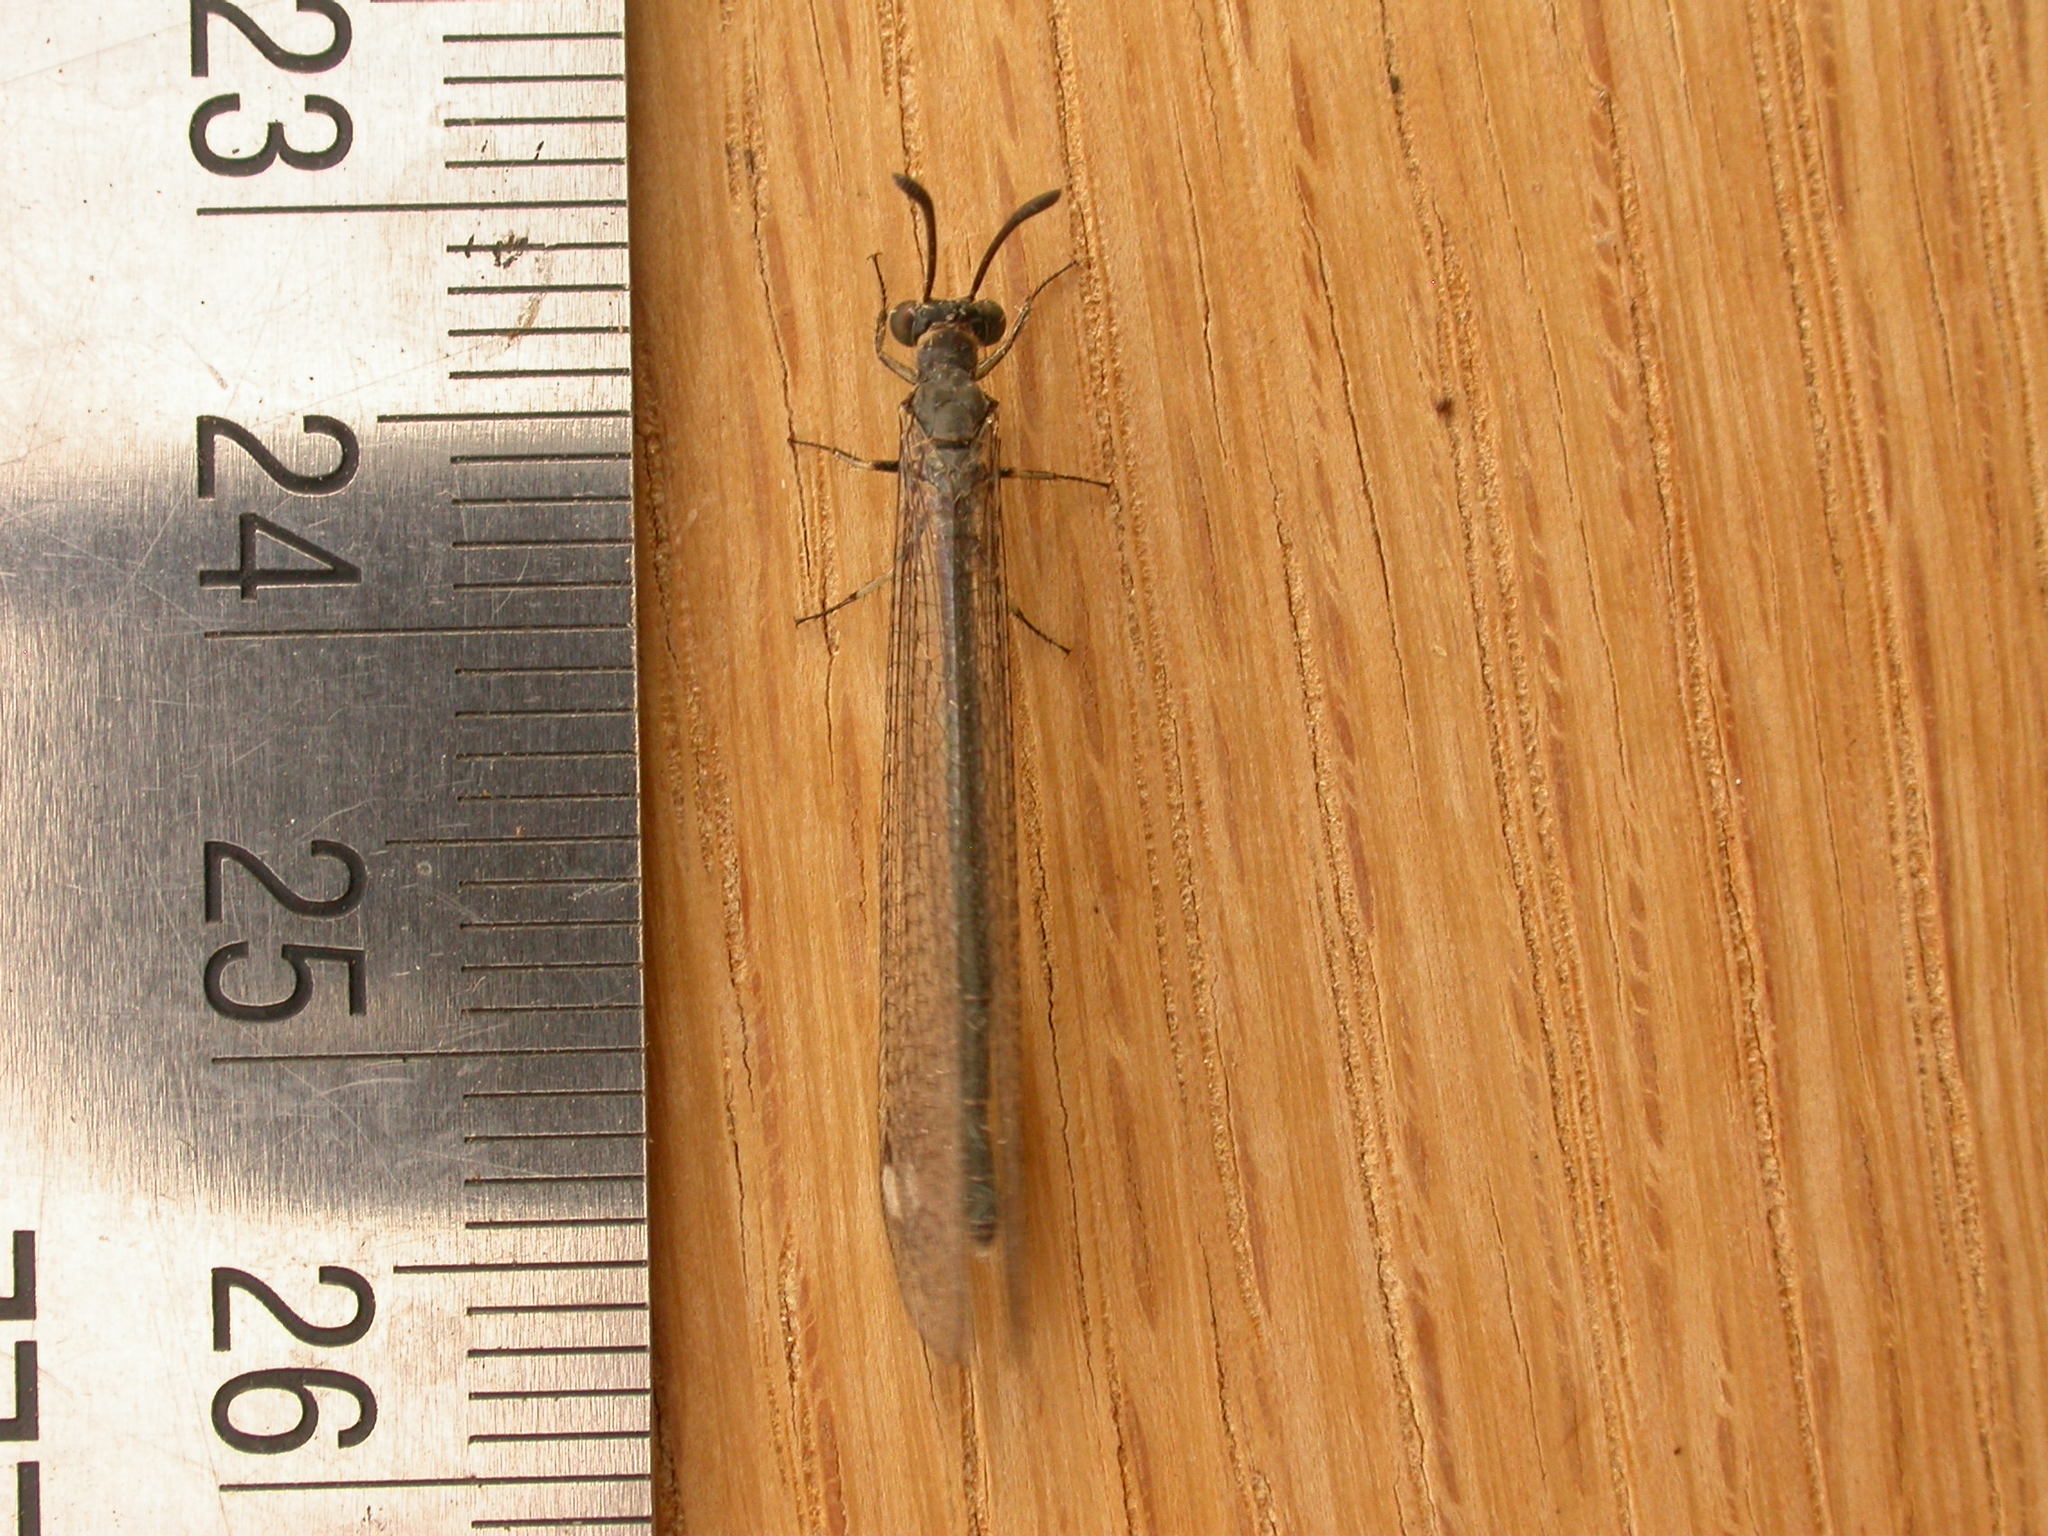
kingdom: Animalia
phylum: Arthropoda
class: Insecta
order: Neuroptera
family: Myrmeleontidae
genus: Myrmeleon
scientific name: Myrmeleon acer
